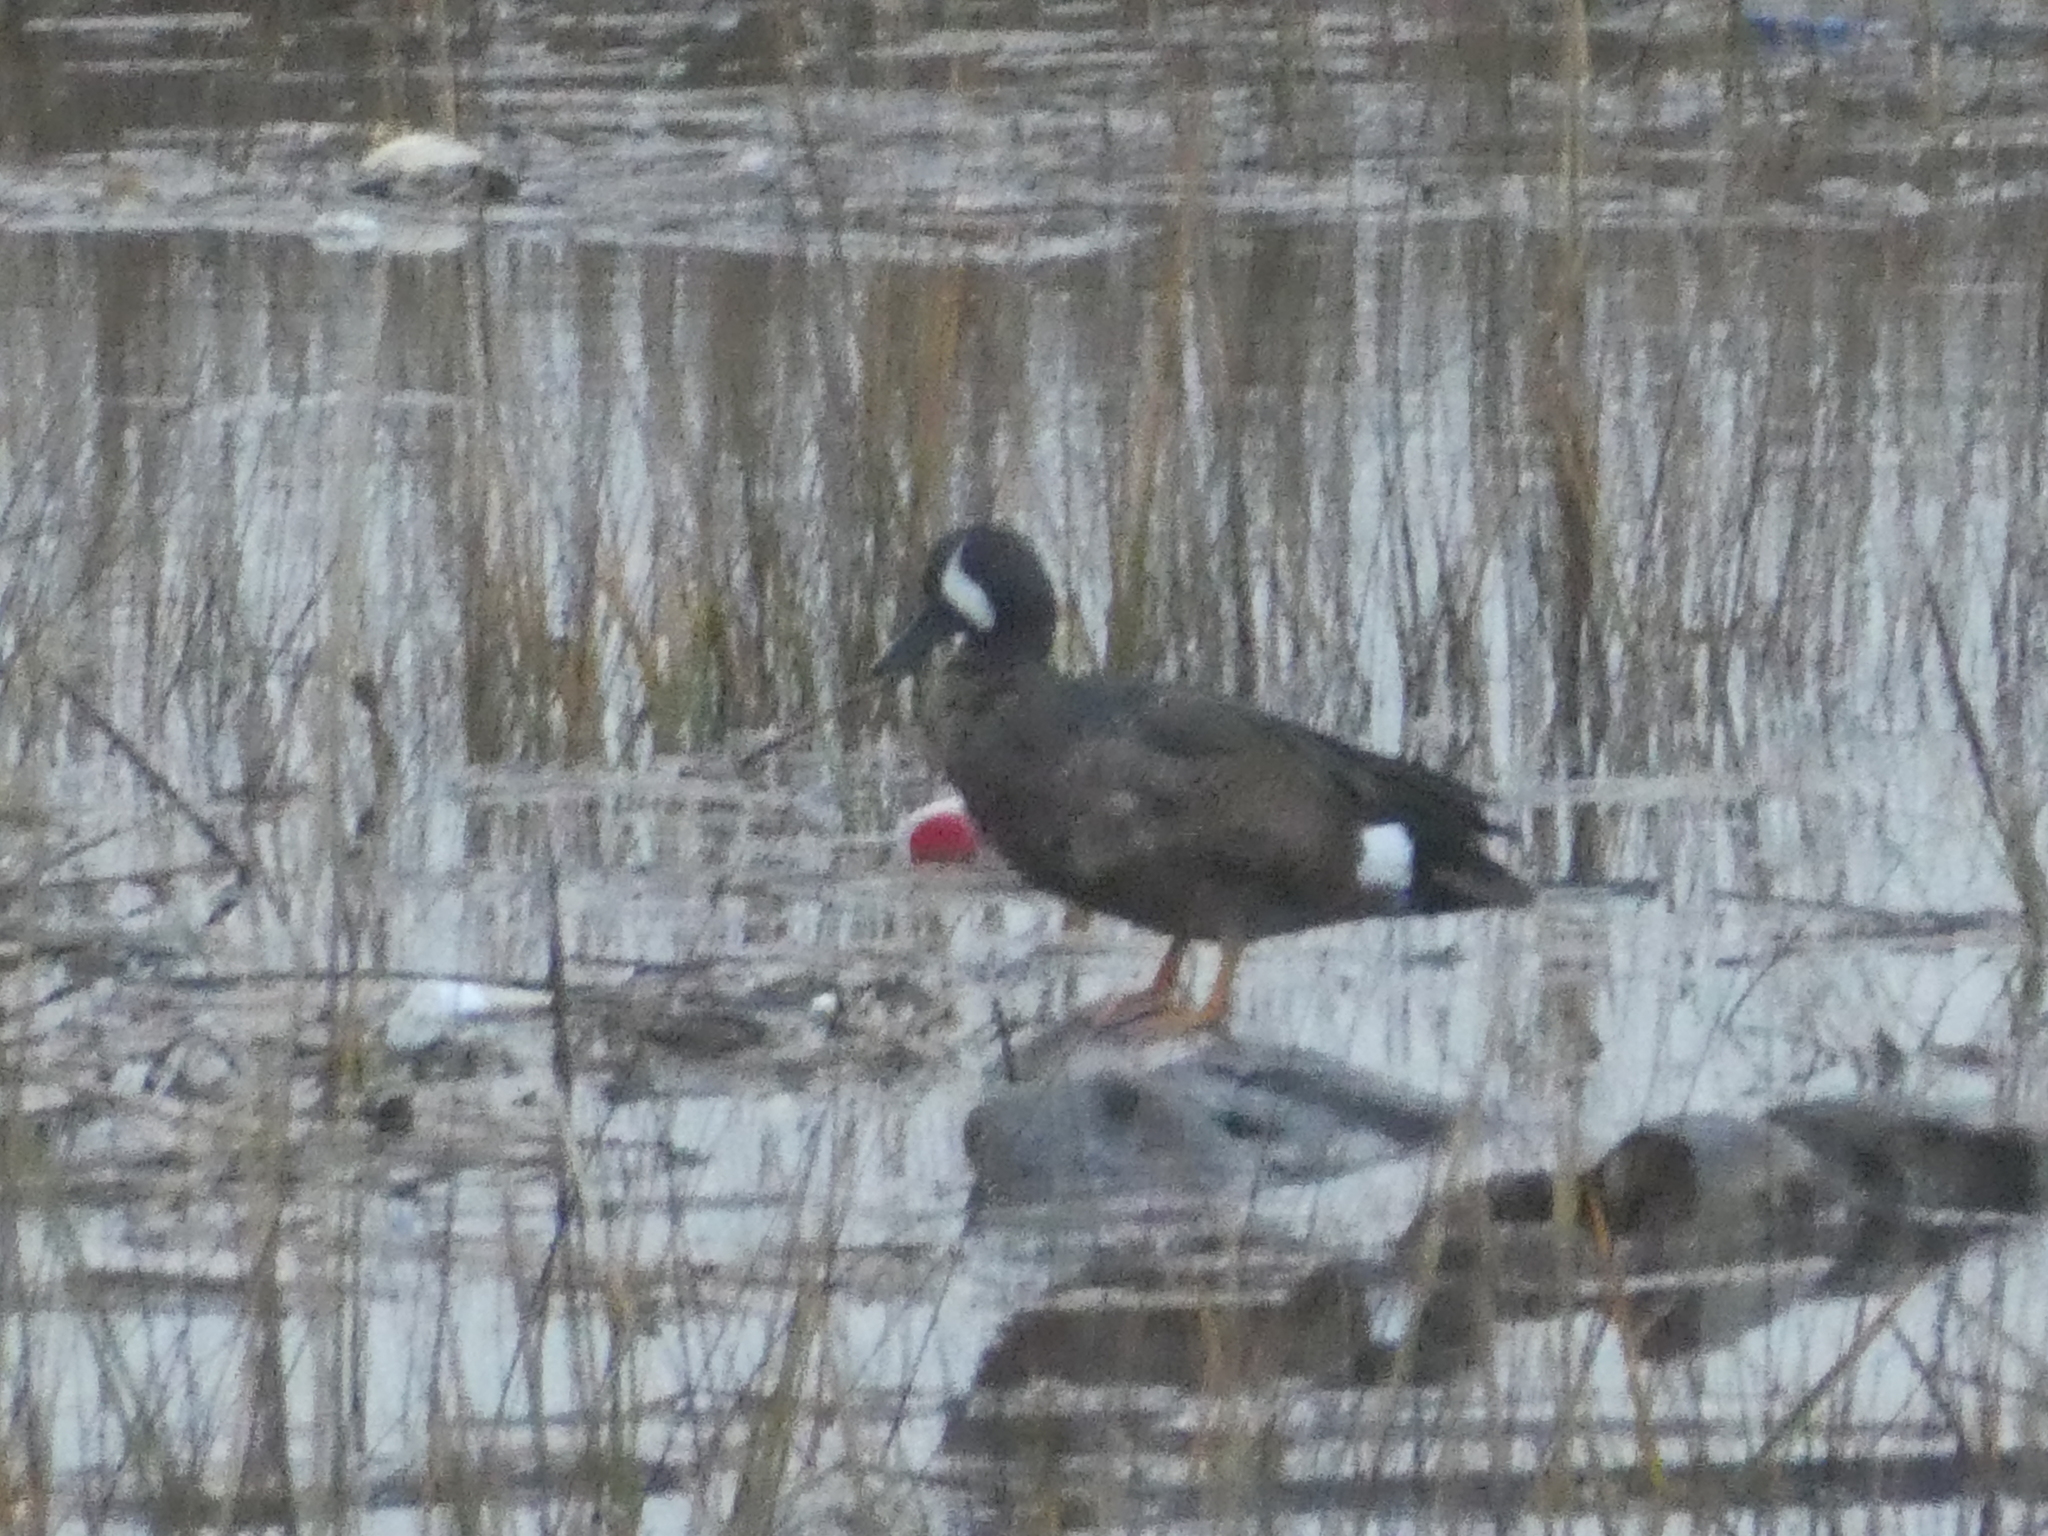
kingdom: Animalia
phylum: Chordata
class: Aves
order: Anseriformes
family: Anatidae
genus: Spatula
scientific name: Spatula discors
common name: Blue-winged teal
